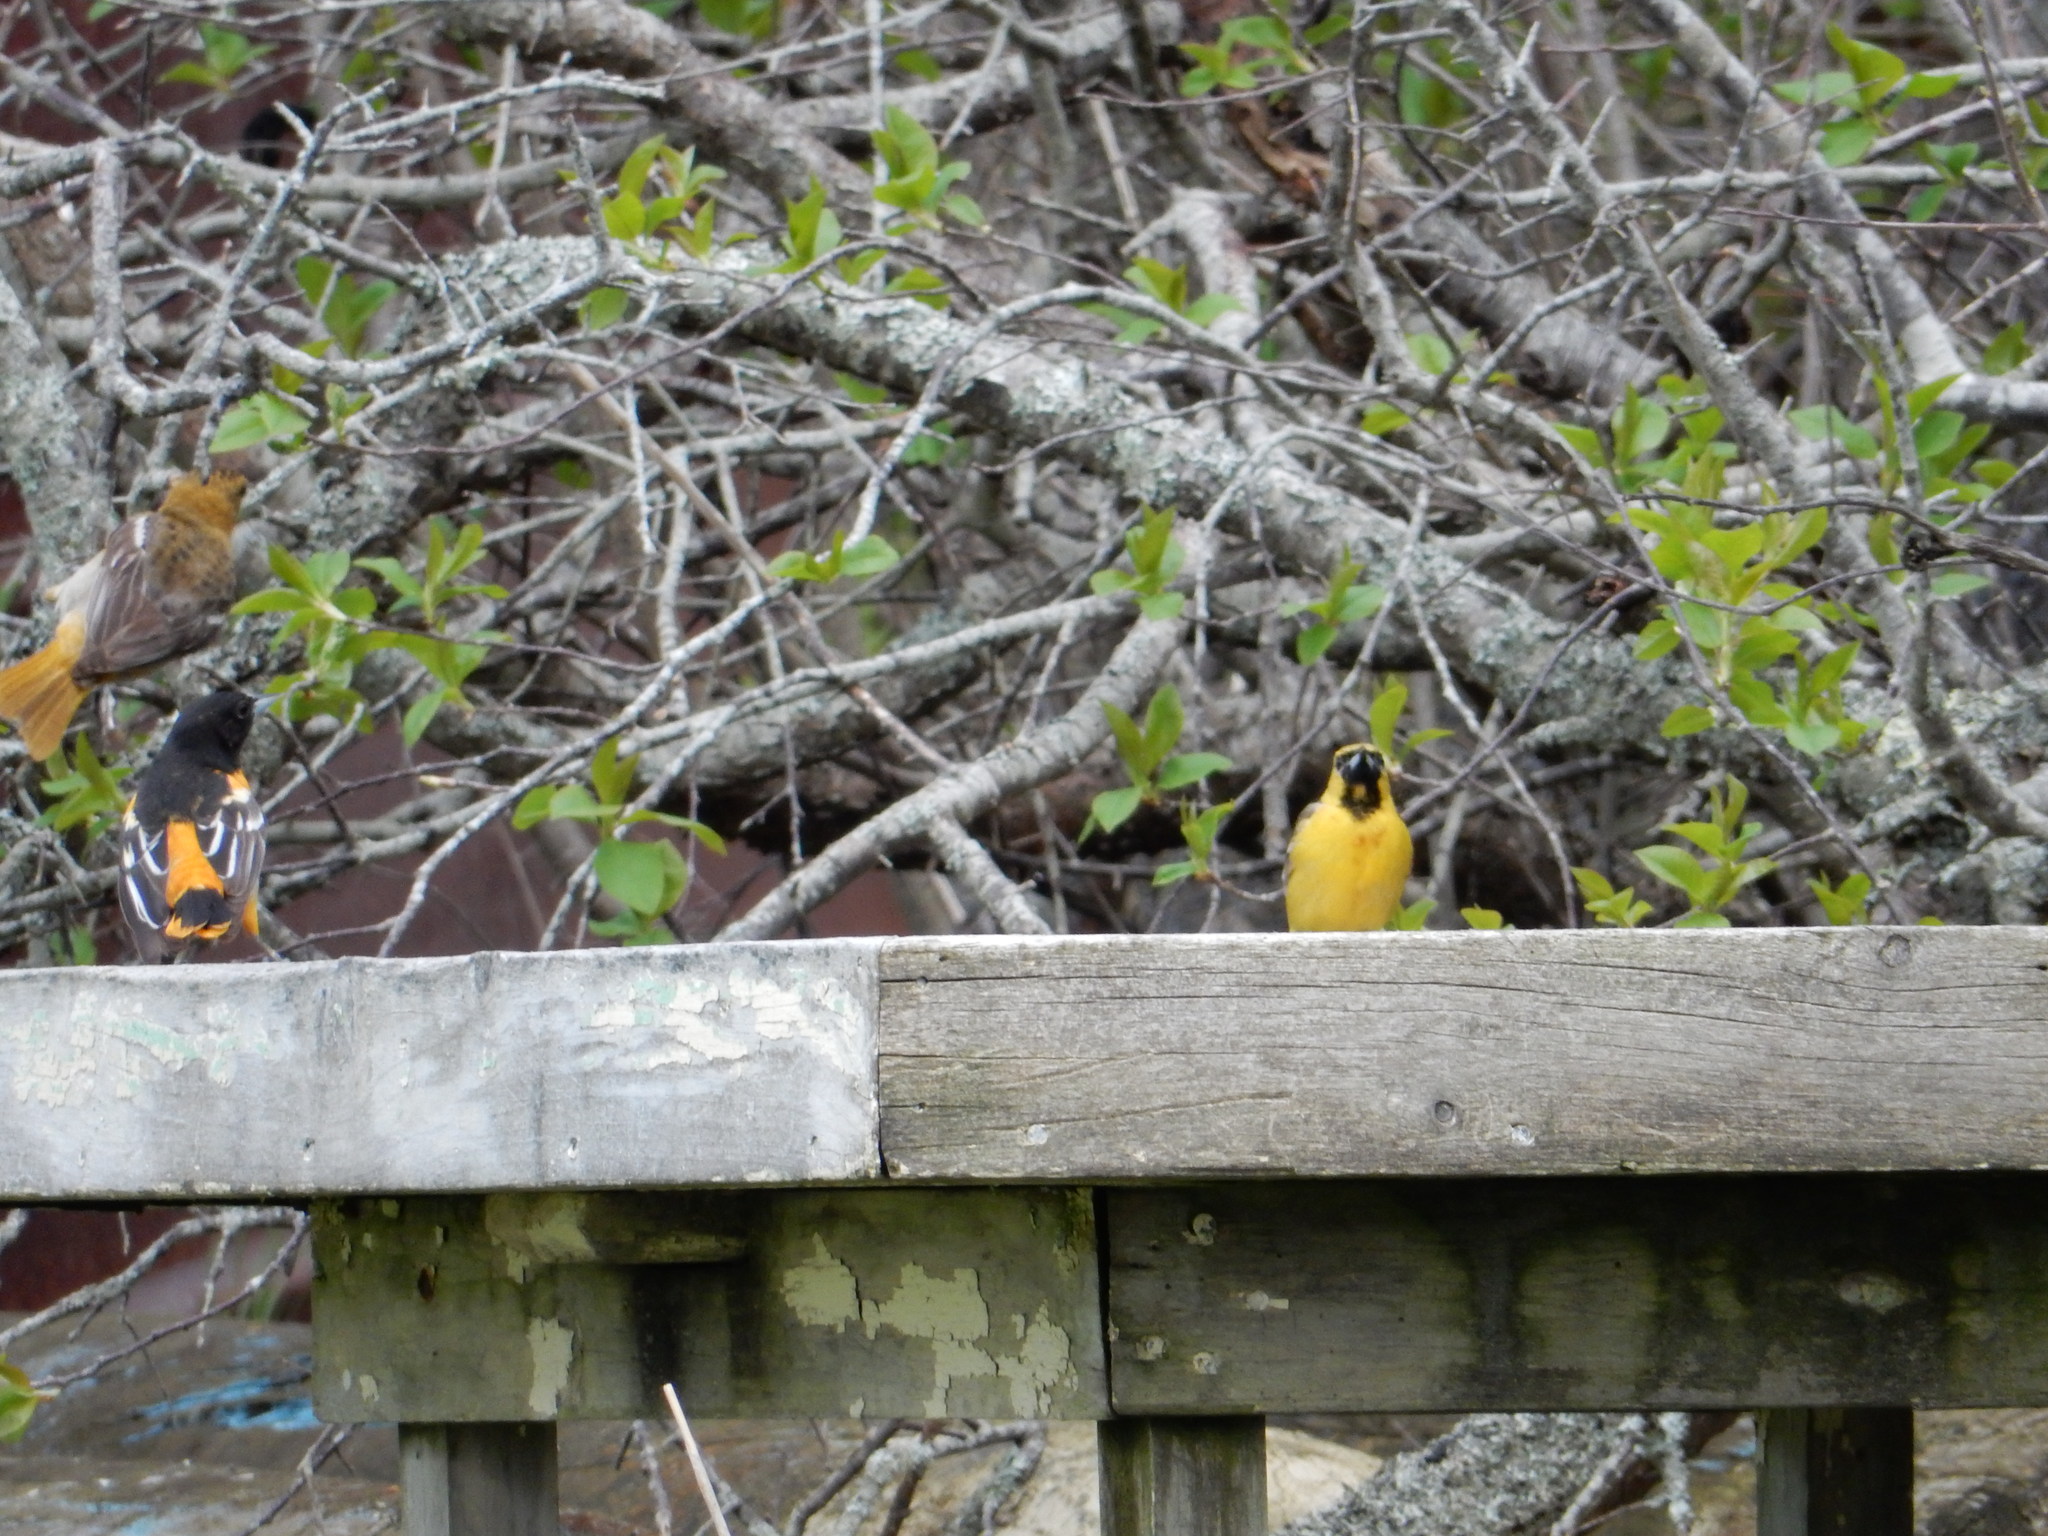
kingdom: Animalia
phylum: Chordata
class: Aves
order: Passeriformes
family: Icteridae
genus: Icterus
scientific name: Icterus spurius
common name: Orchard oriole
